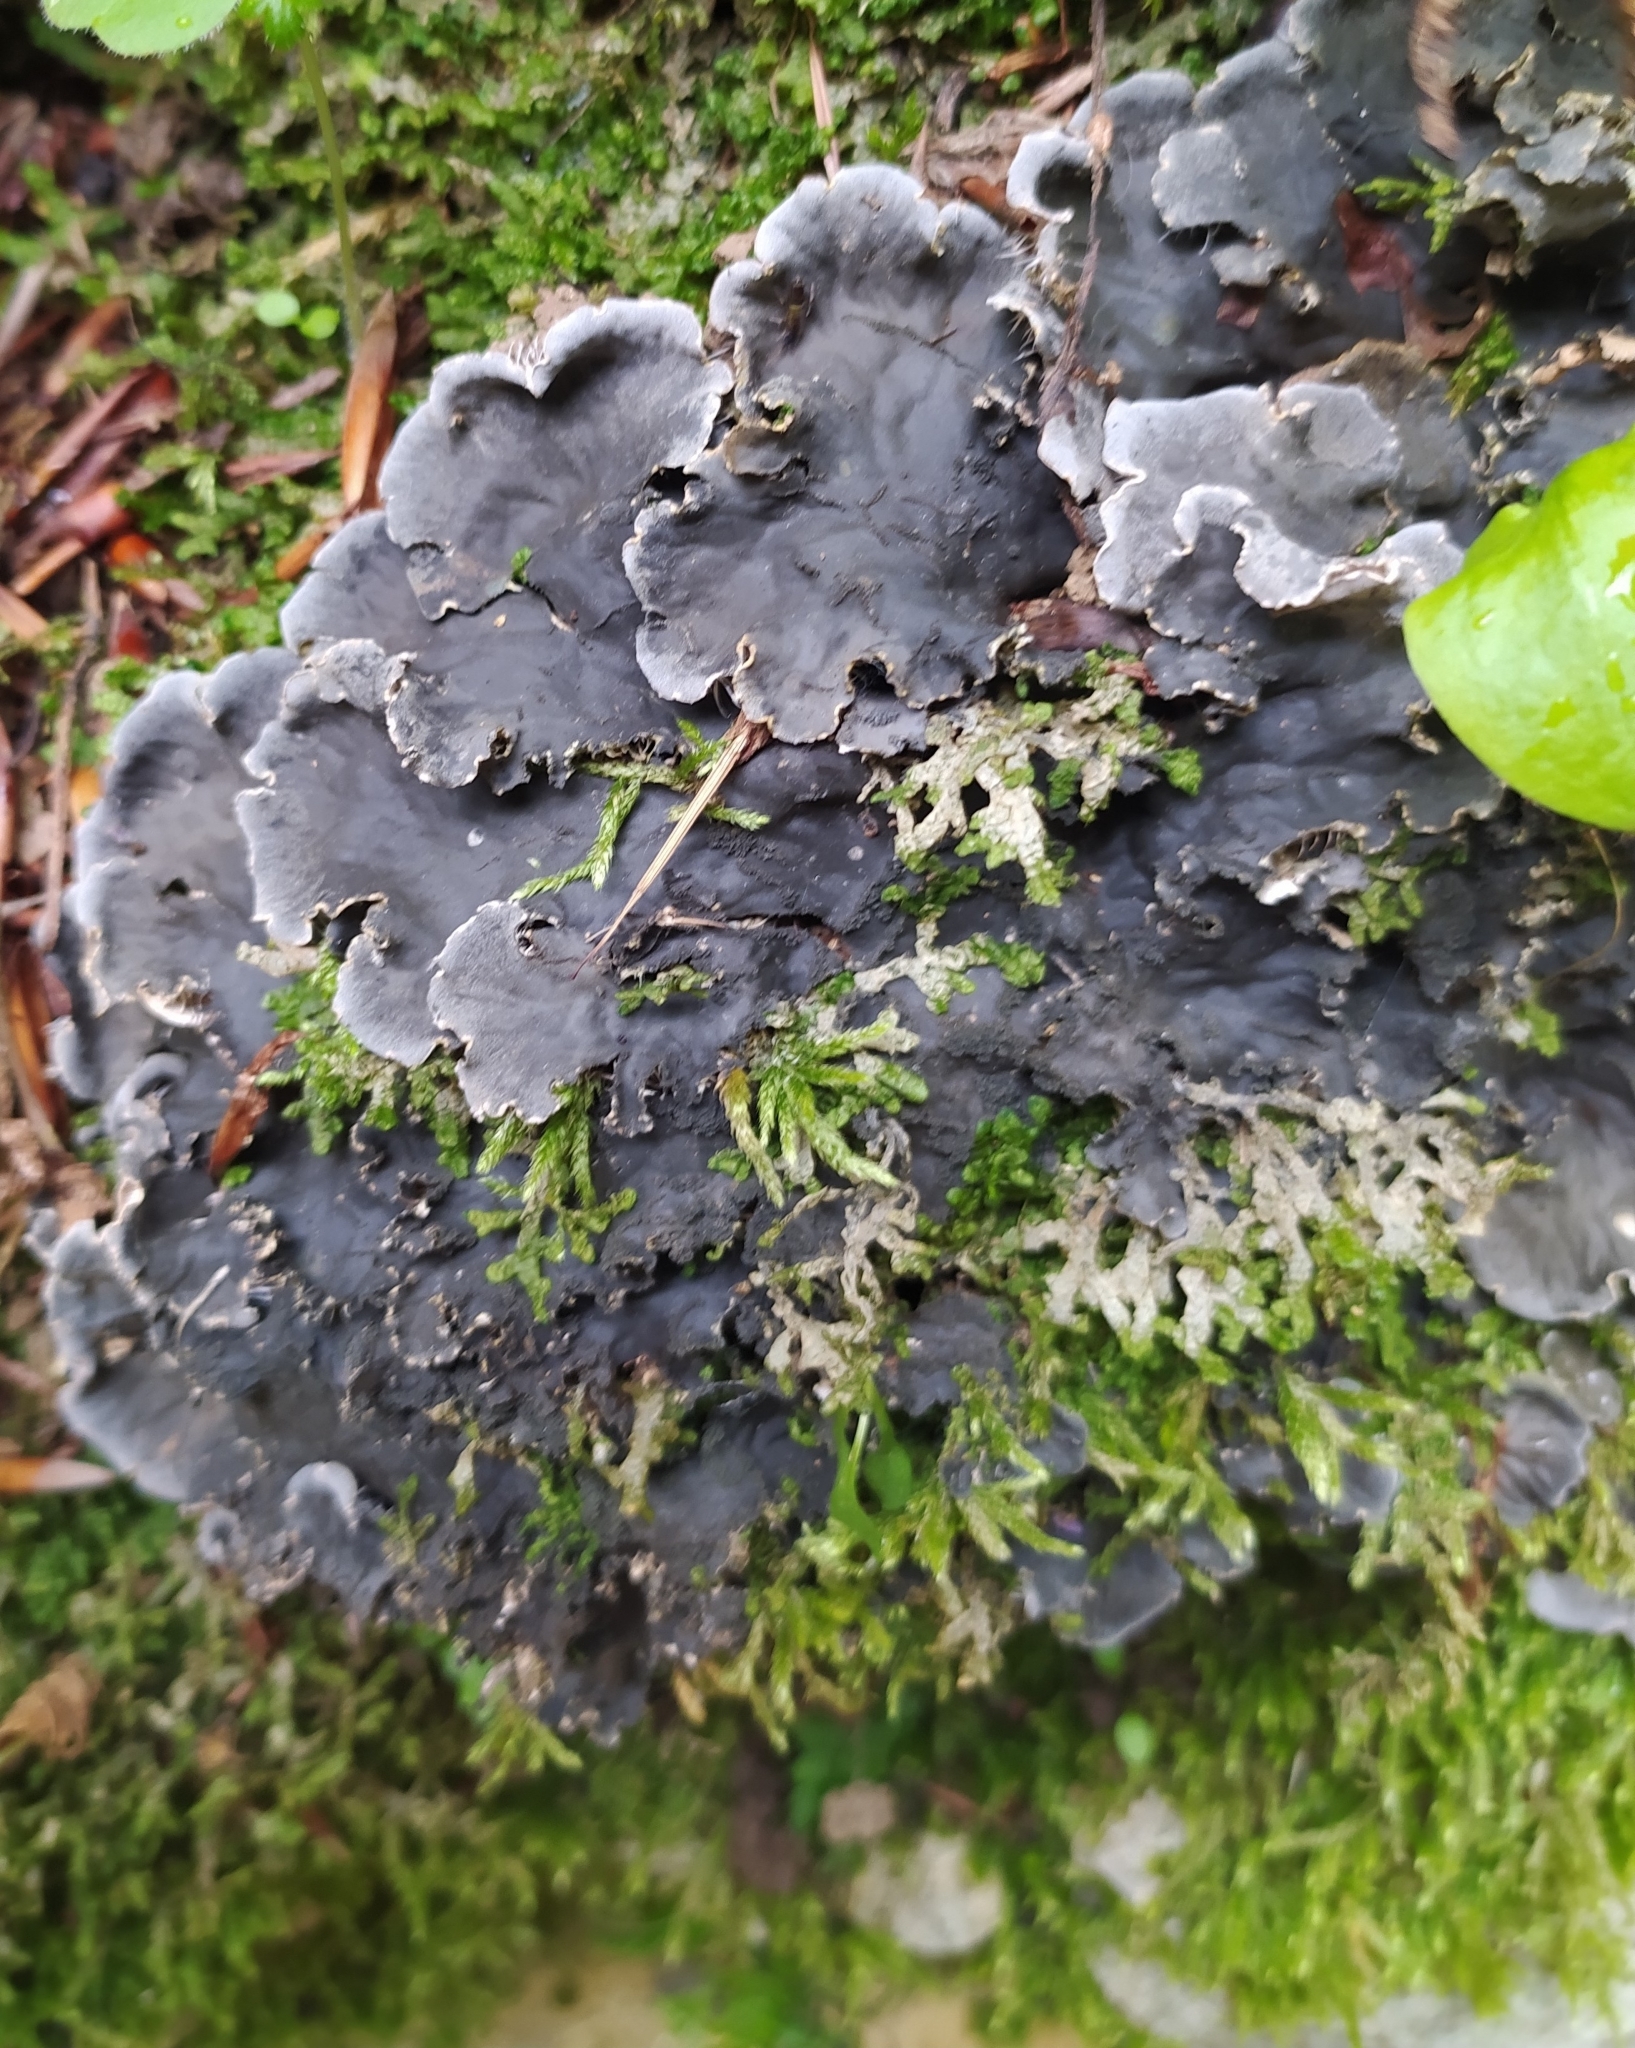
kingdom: Fungi
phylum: Ascomycota
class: Lecanoromycetes
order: Peltigerales
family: Peltigeraceae
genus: Peltigera
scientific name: Peltigera praetextata
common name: Scaly dog-lichen
